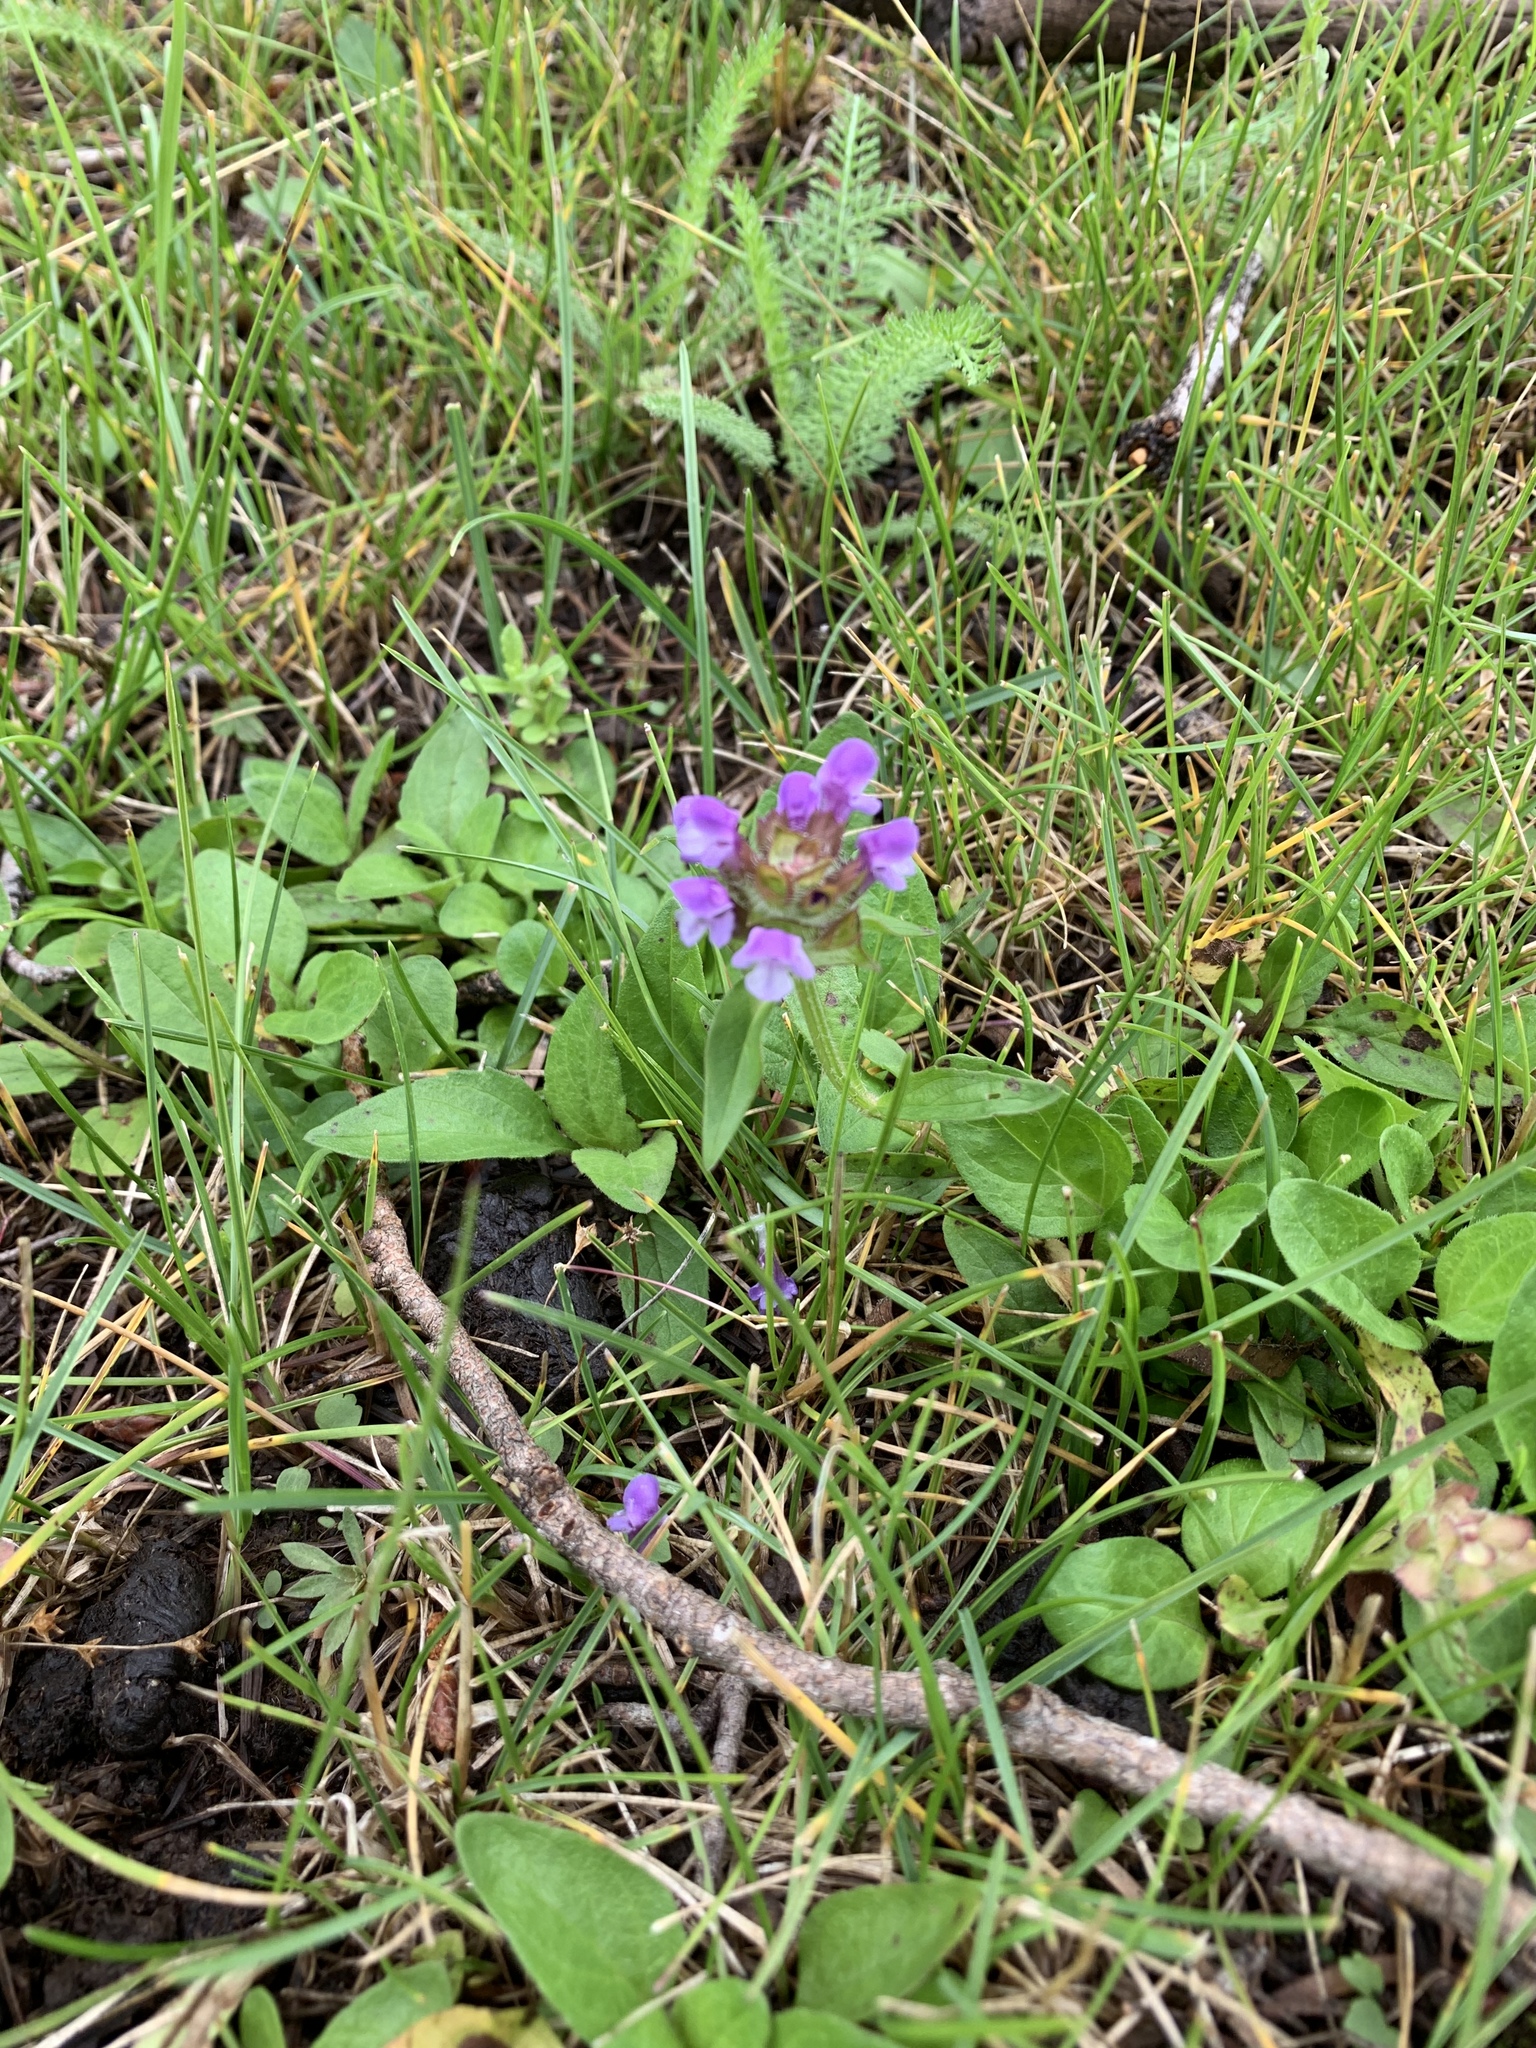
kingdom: Plantae
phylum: Tracheophyta
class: Magnoliopsida
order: Lamiales
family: Lamiaceae
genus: Prunella
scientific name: Prunella vulgaris
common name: Heal-all
